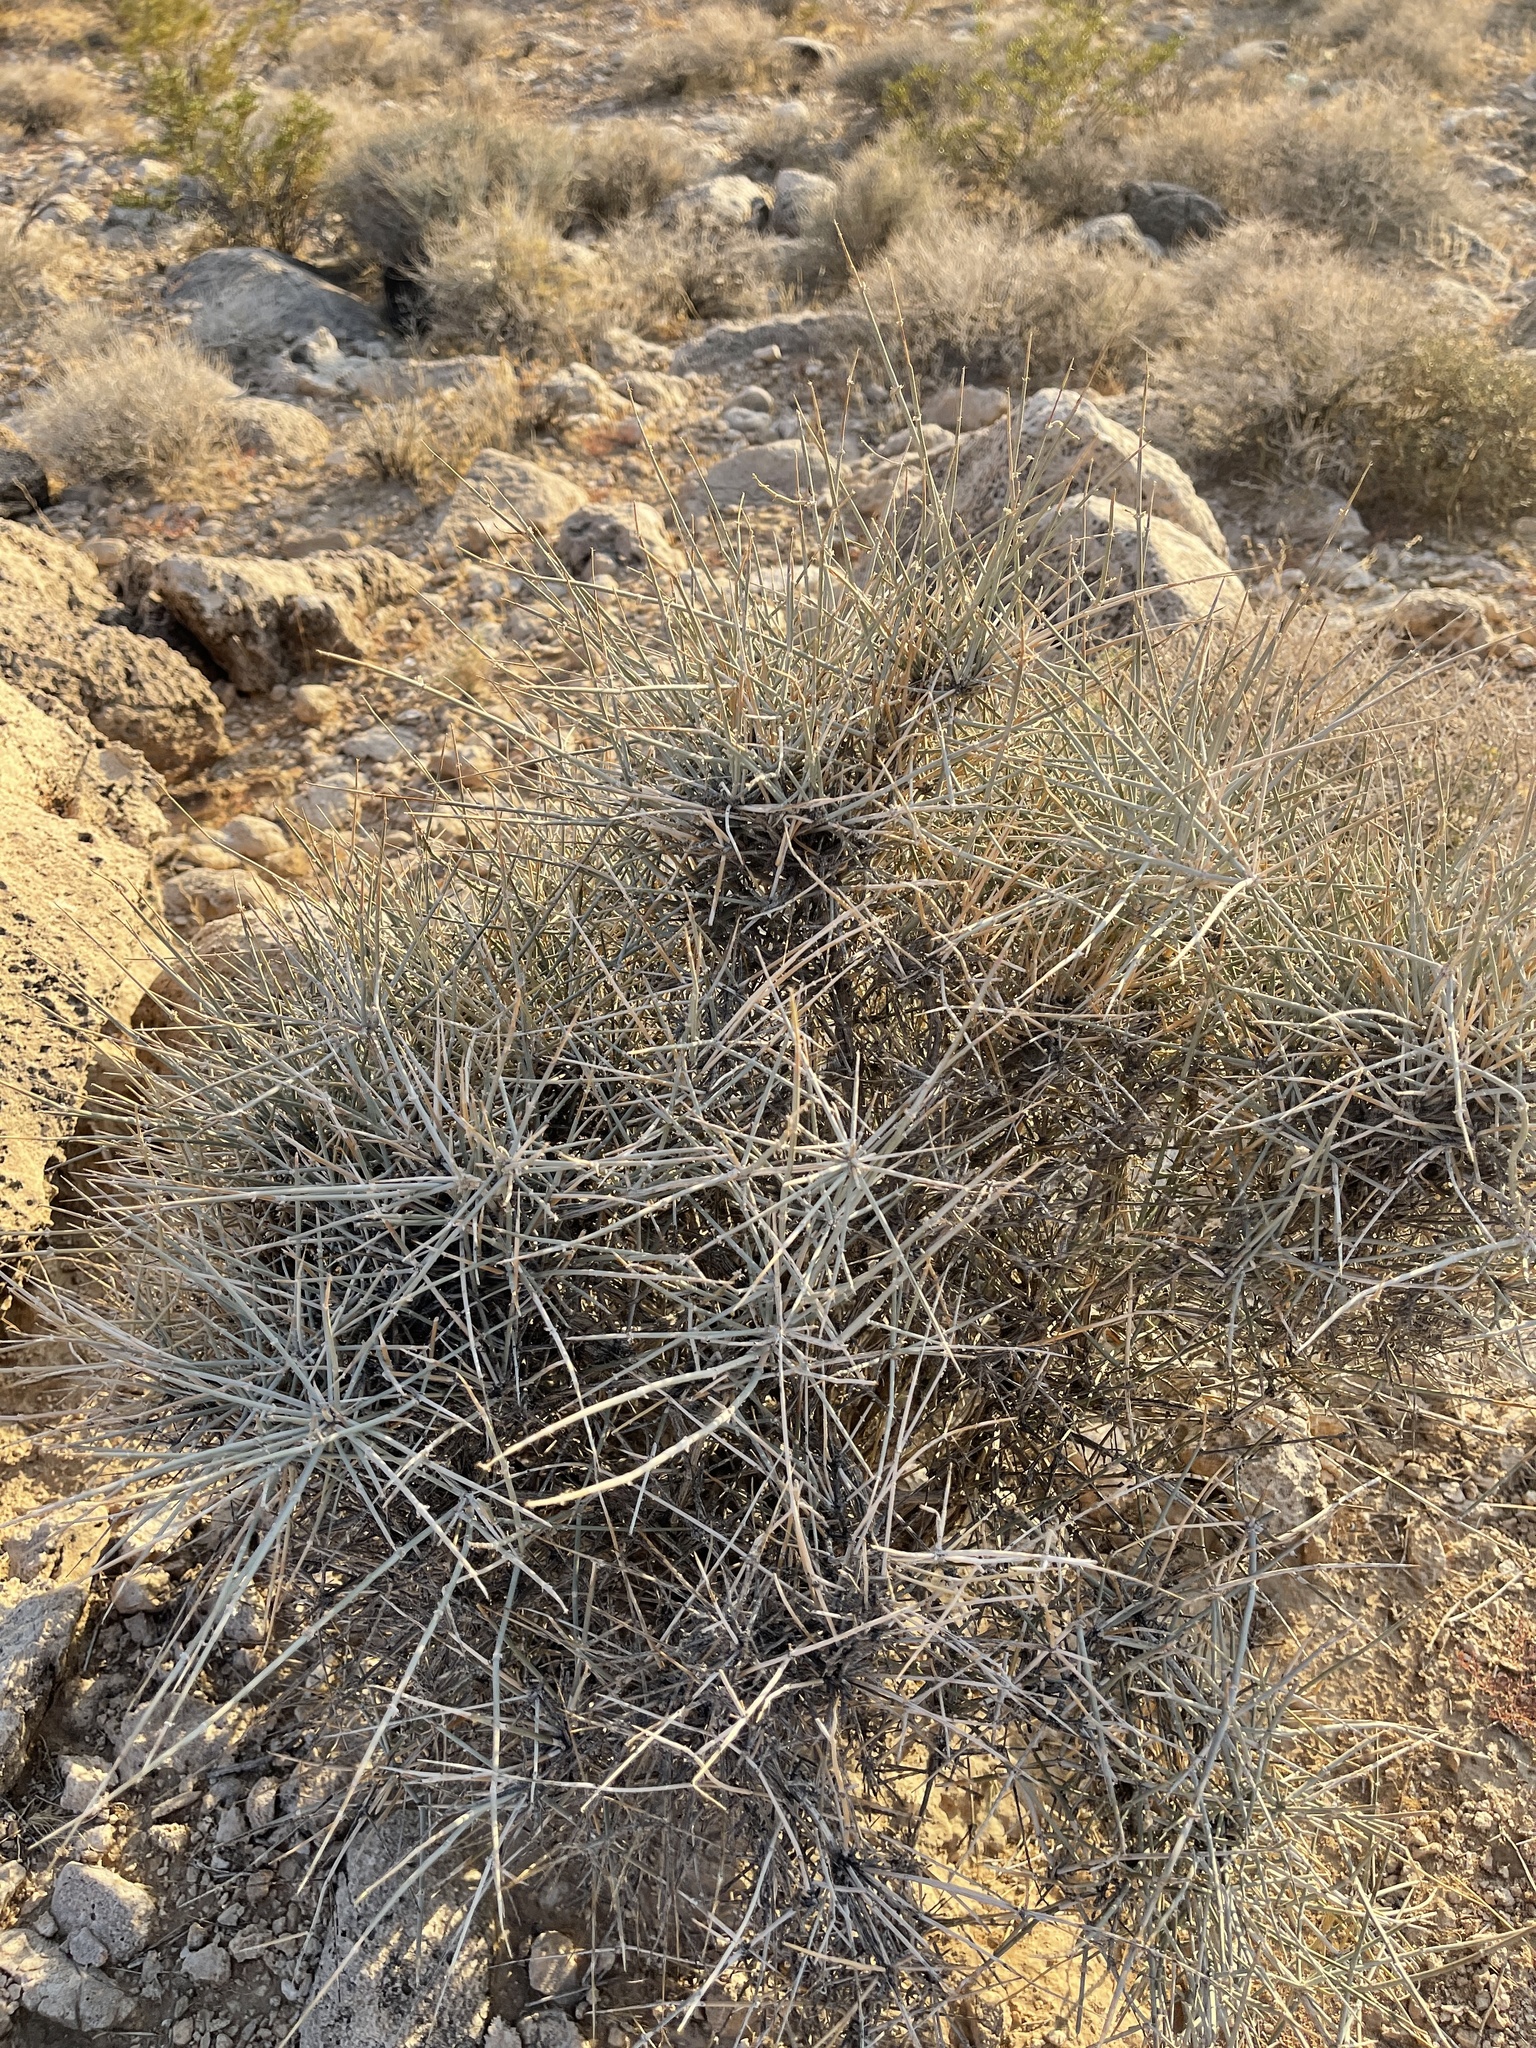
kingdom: Plantae
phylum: Tracheophyta
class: Gnetopsida
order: Ephedrales
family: Ephedraceae
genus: Ephedra
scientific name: Ephedra nevadensis
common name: Gray ephedra
